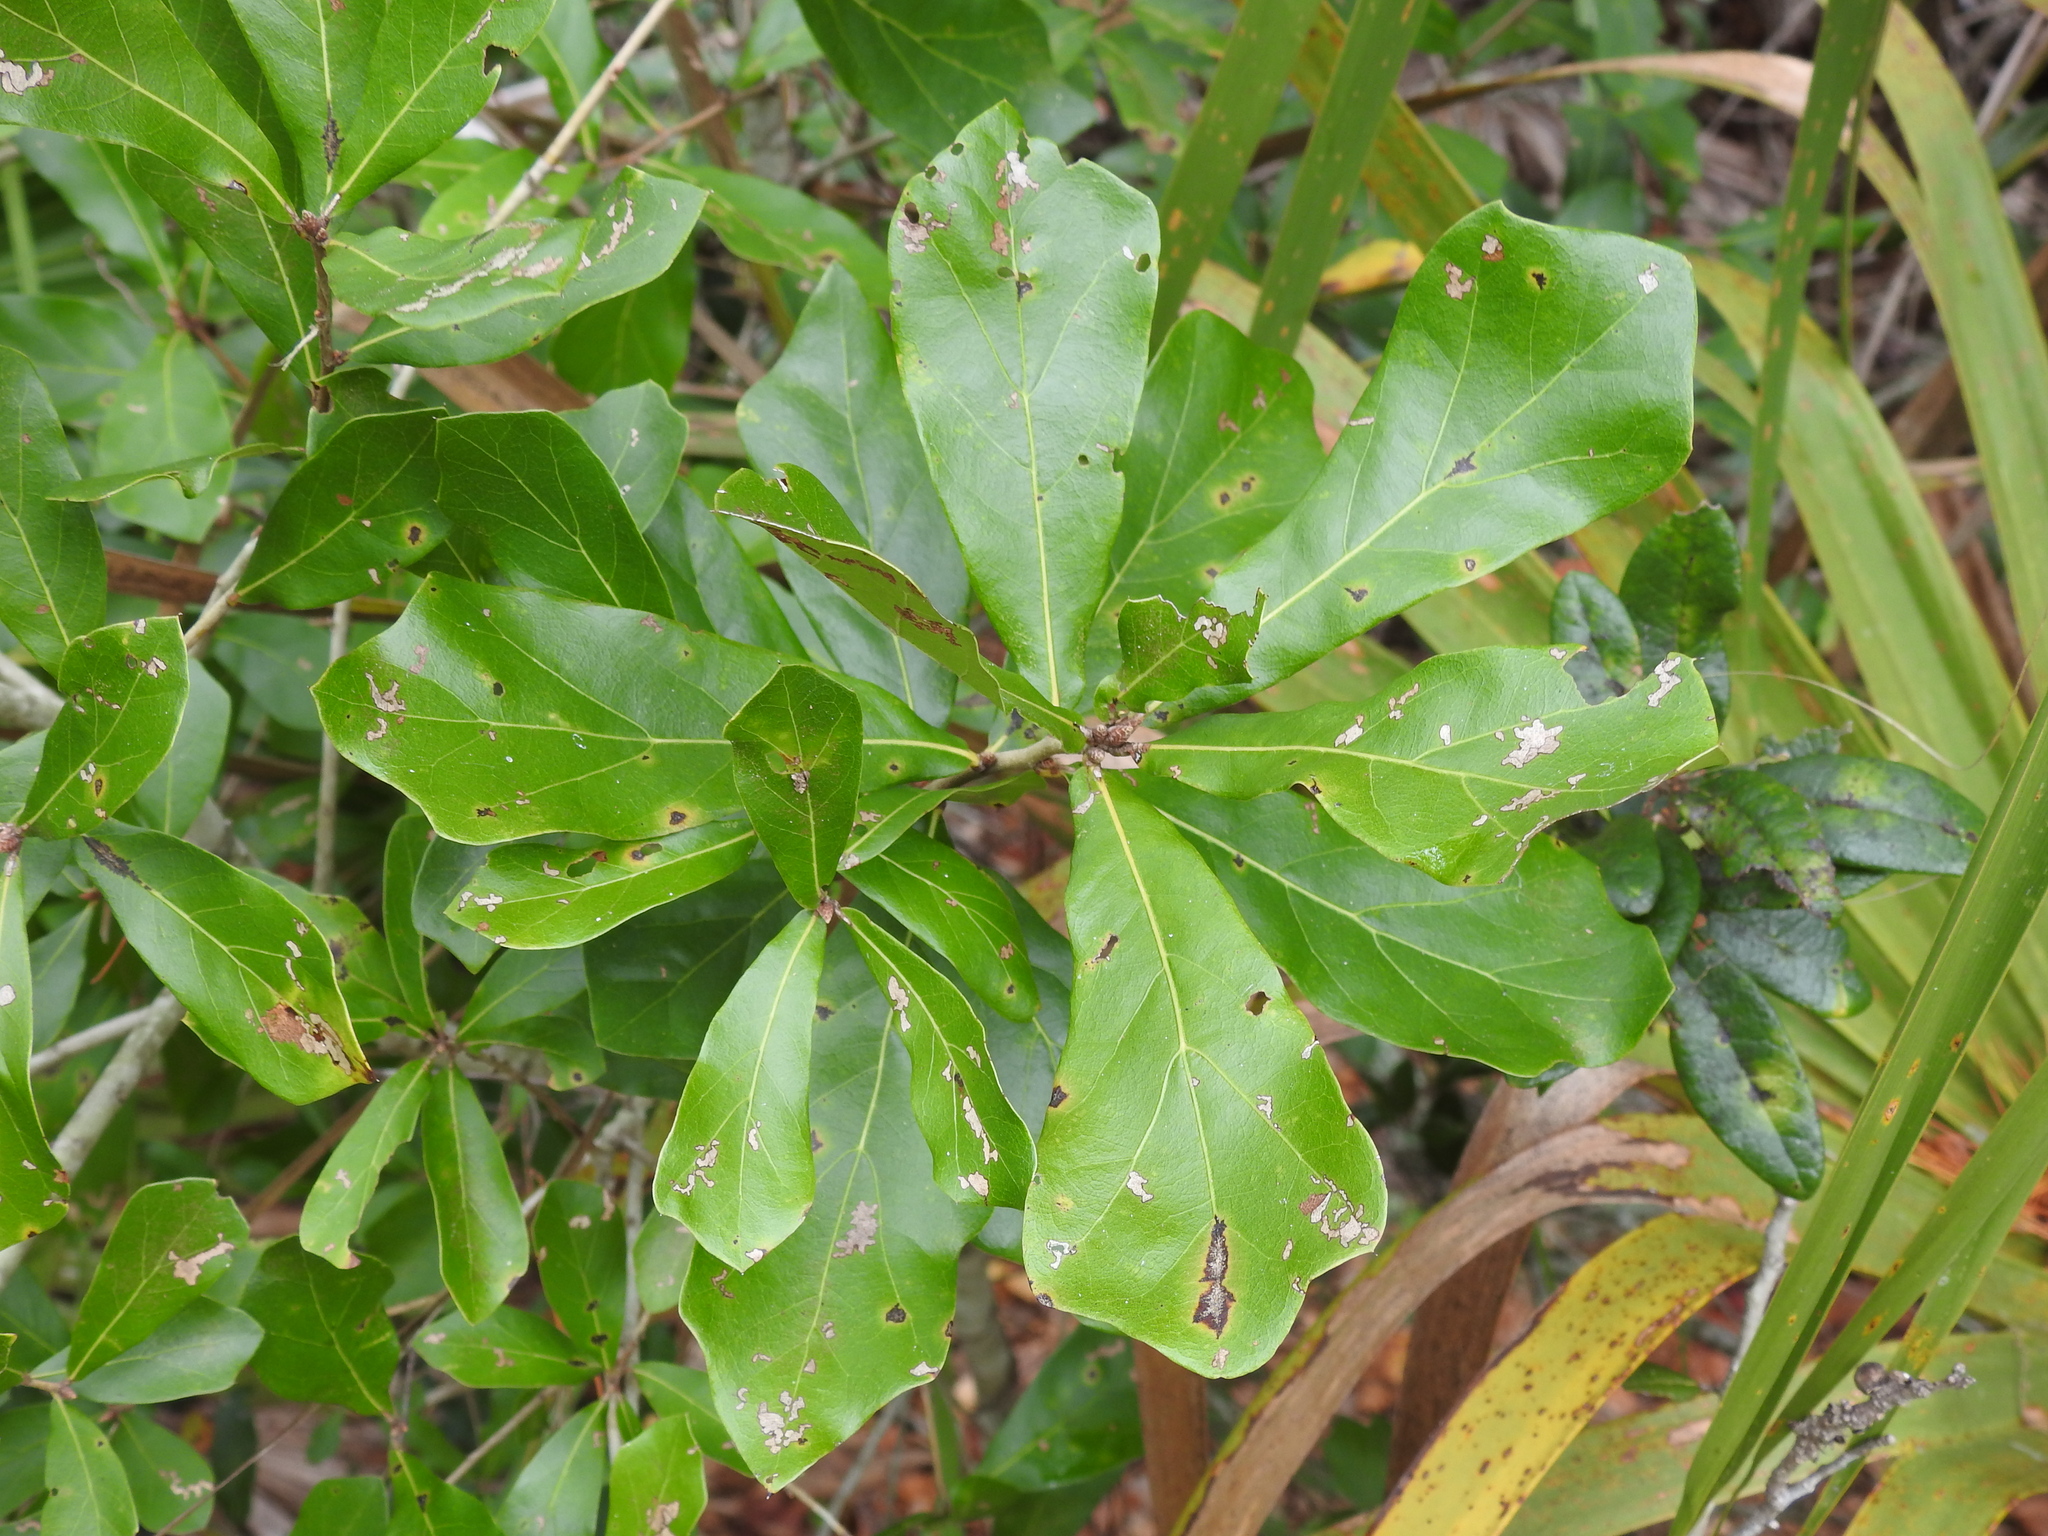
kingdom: Plantae
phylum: Tracheophyta
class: Magnoliopsida
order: Fagales
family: Fagaceae
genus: Quercus
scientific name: Quercus nigra
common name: Water oak
